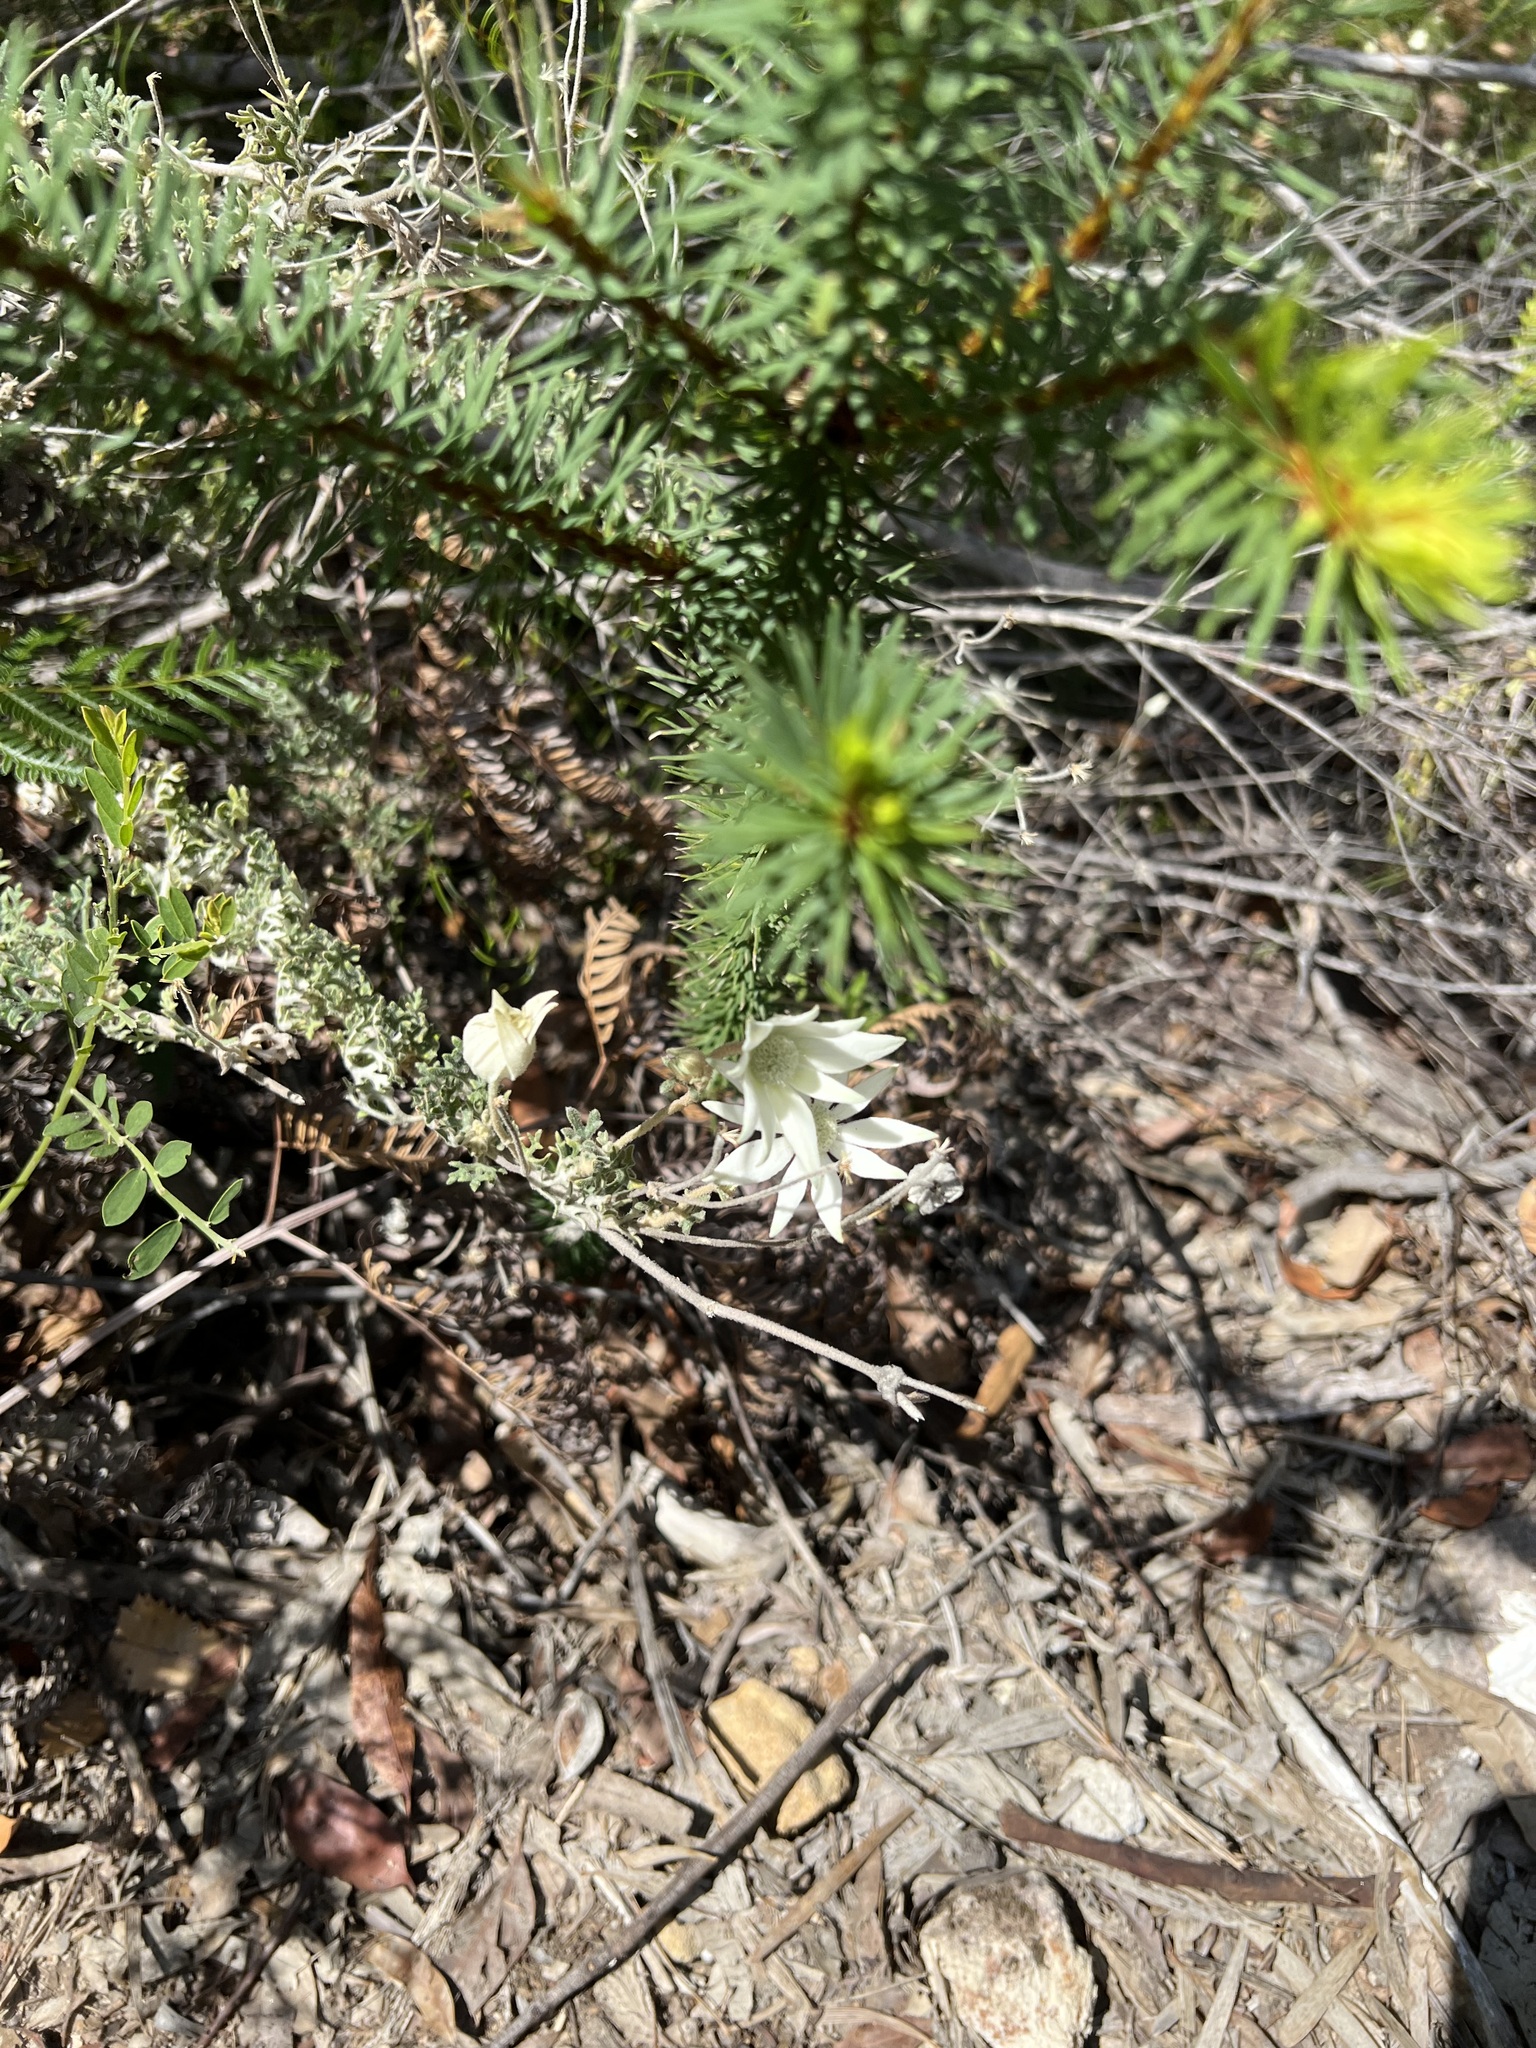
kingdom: Plantae
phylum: Tracheophyta
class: Magnoliopsida
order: Apiales
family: Apiaceae
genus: Actinotus
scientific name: Actinotus helianthi
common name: Flannel-flower
